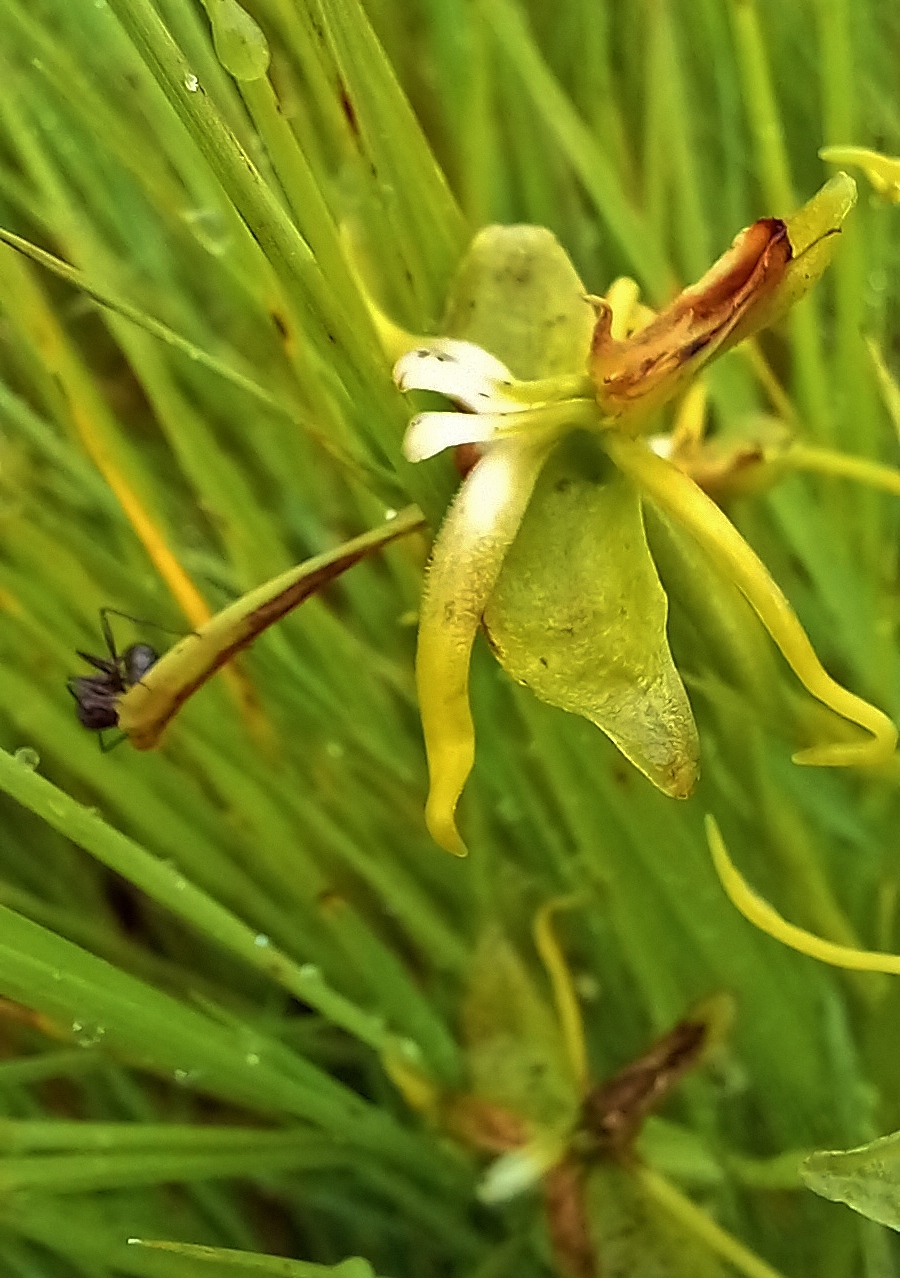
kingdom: Plantae
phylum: Tracheophyta
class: Liliopsida
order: Asparagales
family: Orchidaceae
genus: Habenaria
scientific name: Habenaria rautaneniana
